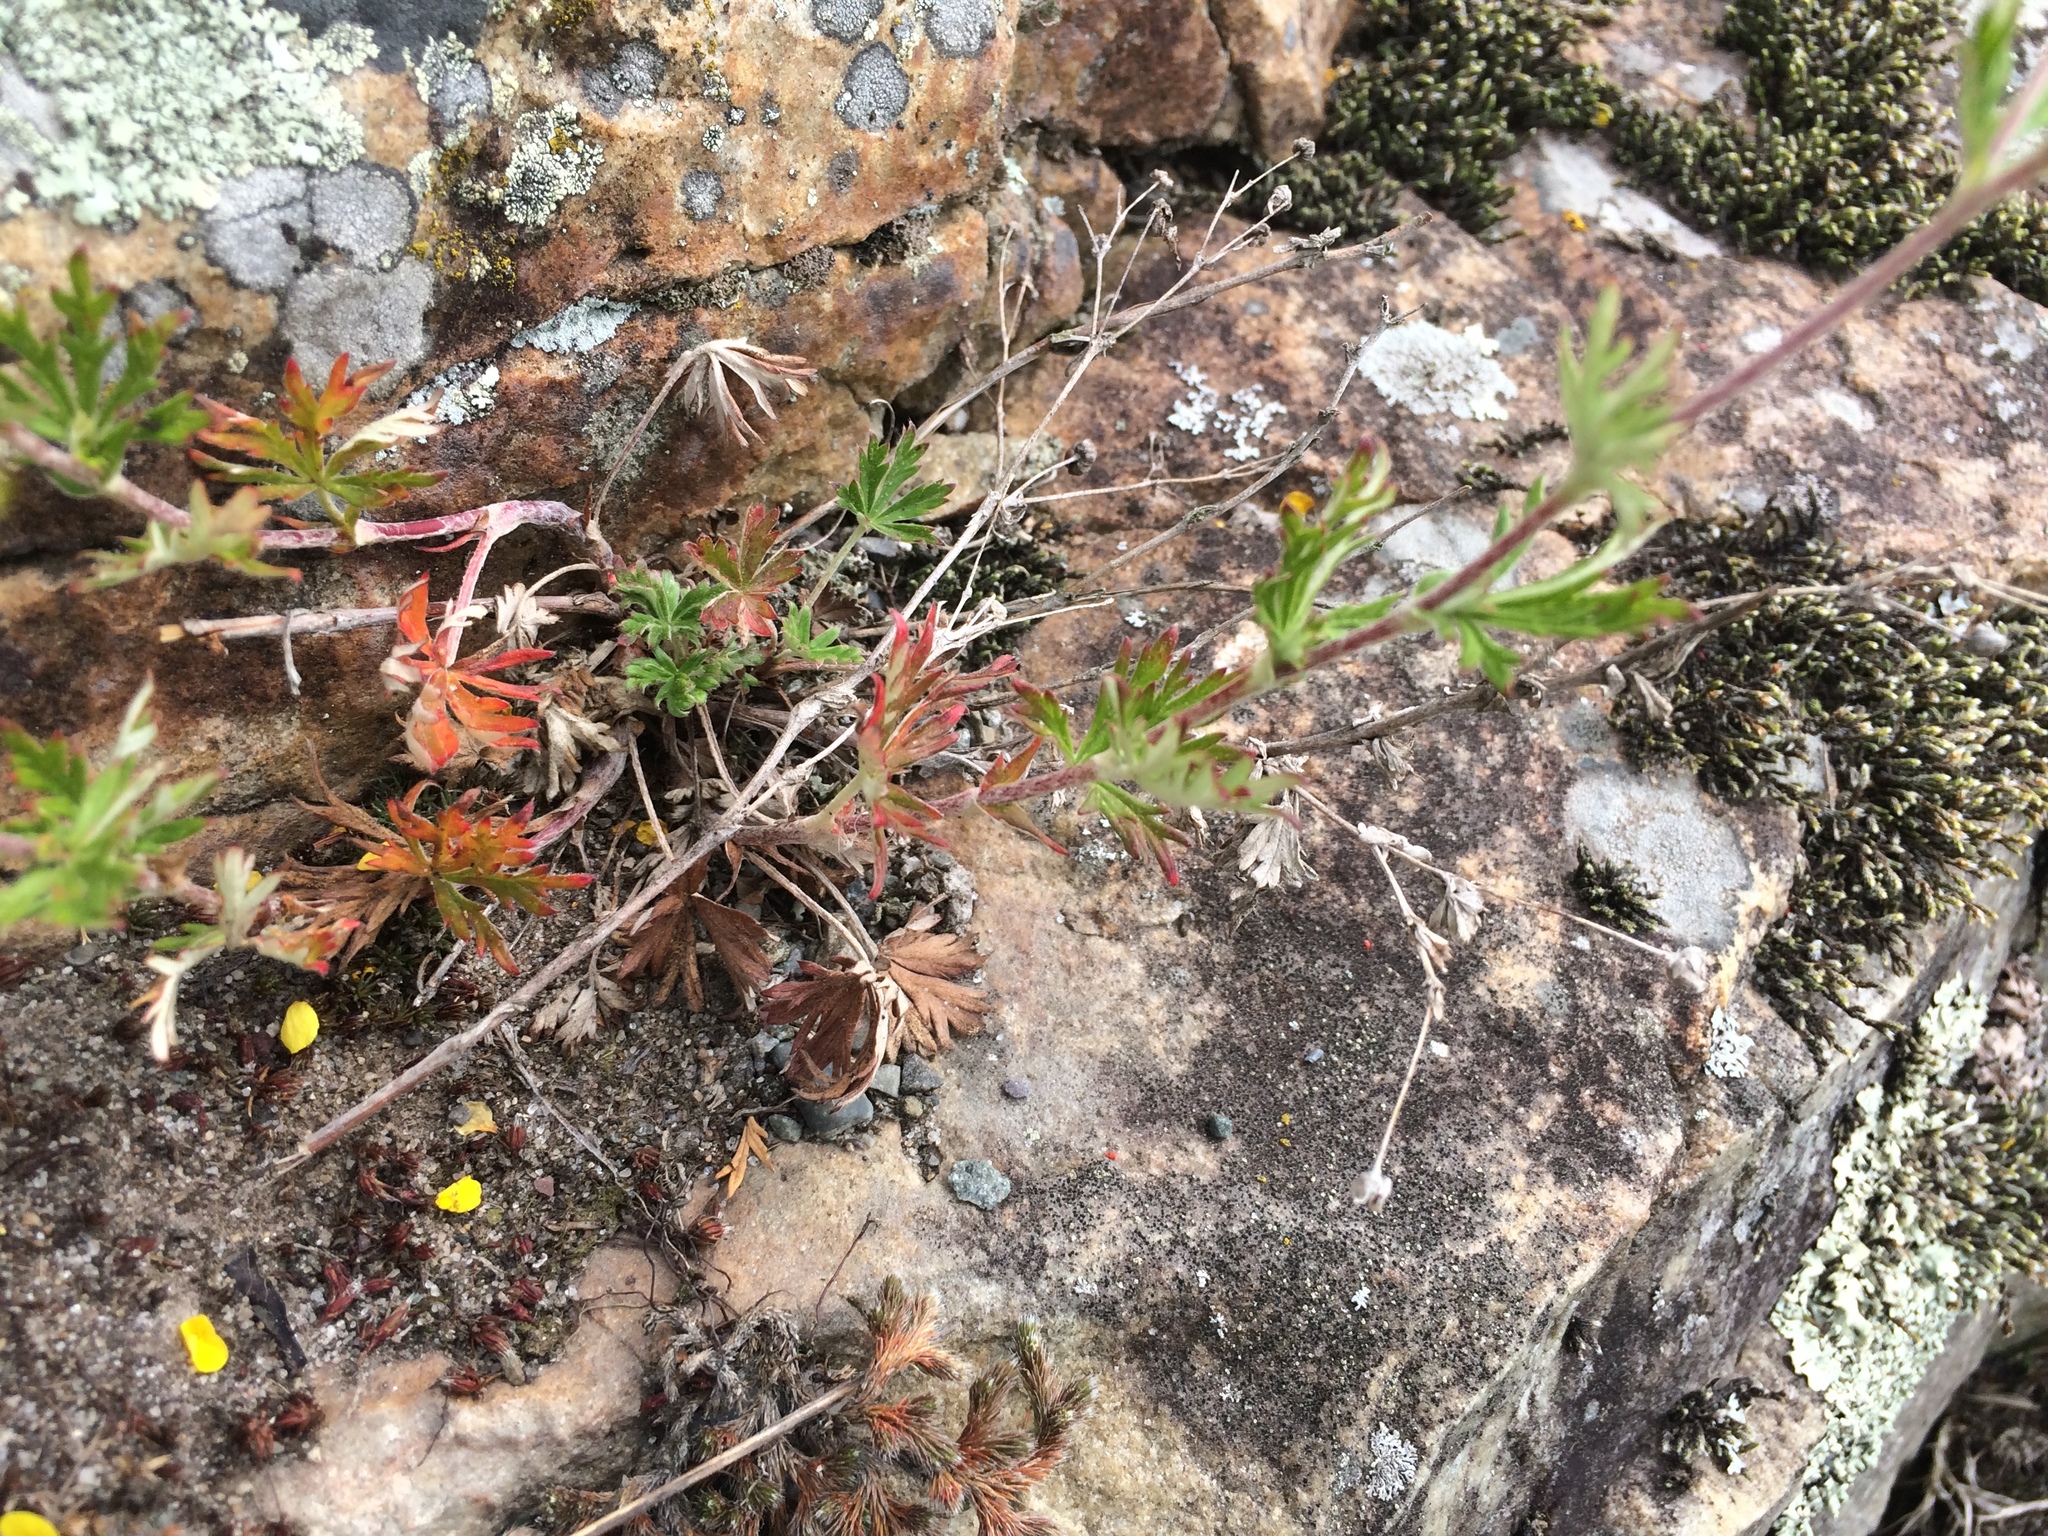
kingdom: Plantae
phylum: Tracheophyta
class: Magnoliopsida
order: Rosales
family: Rosaceae
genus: Potentilla
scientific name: Potentilla argentea
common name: Hoary cinquefoil
